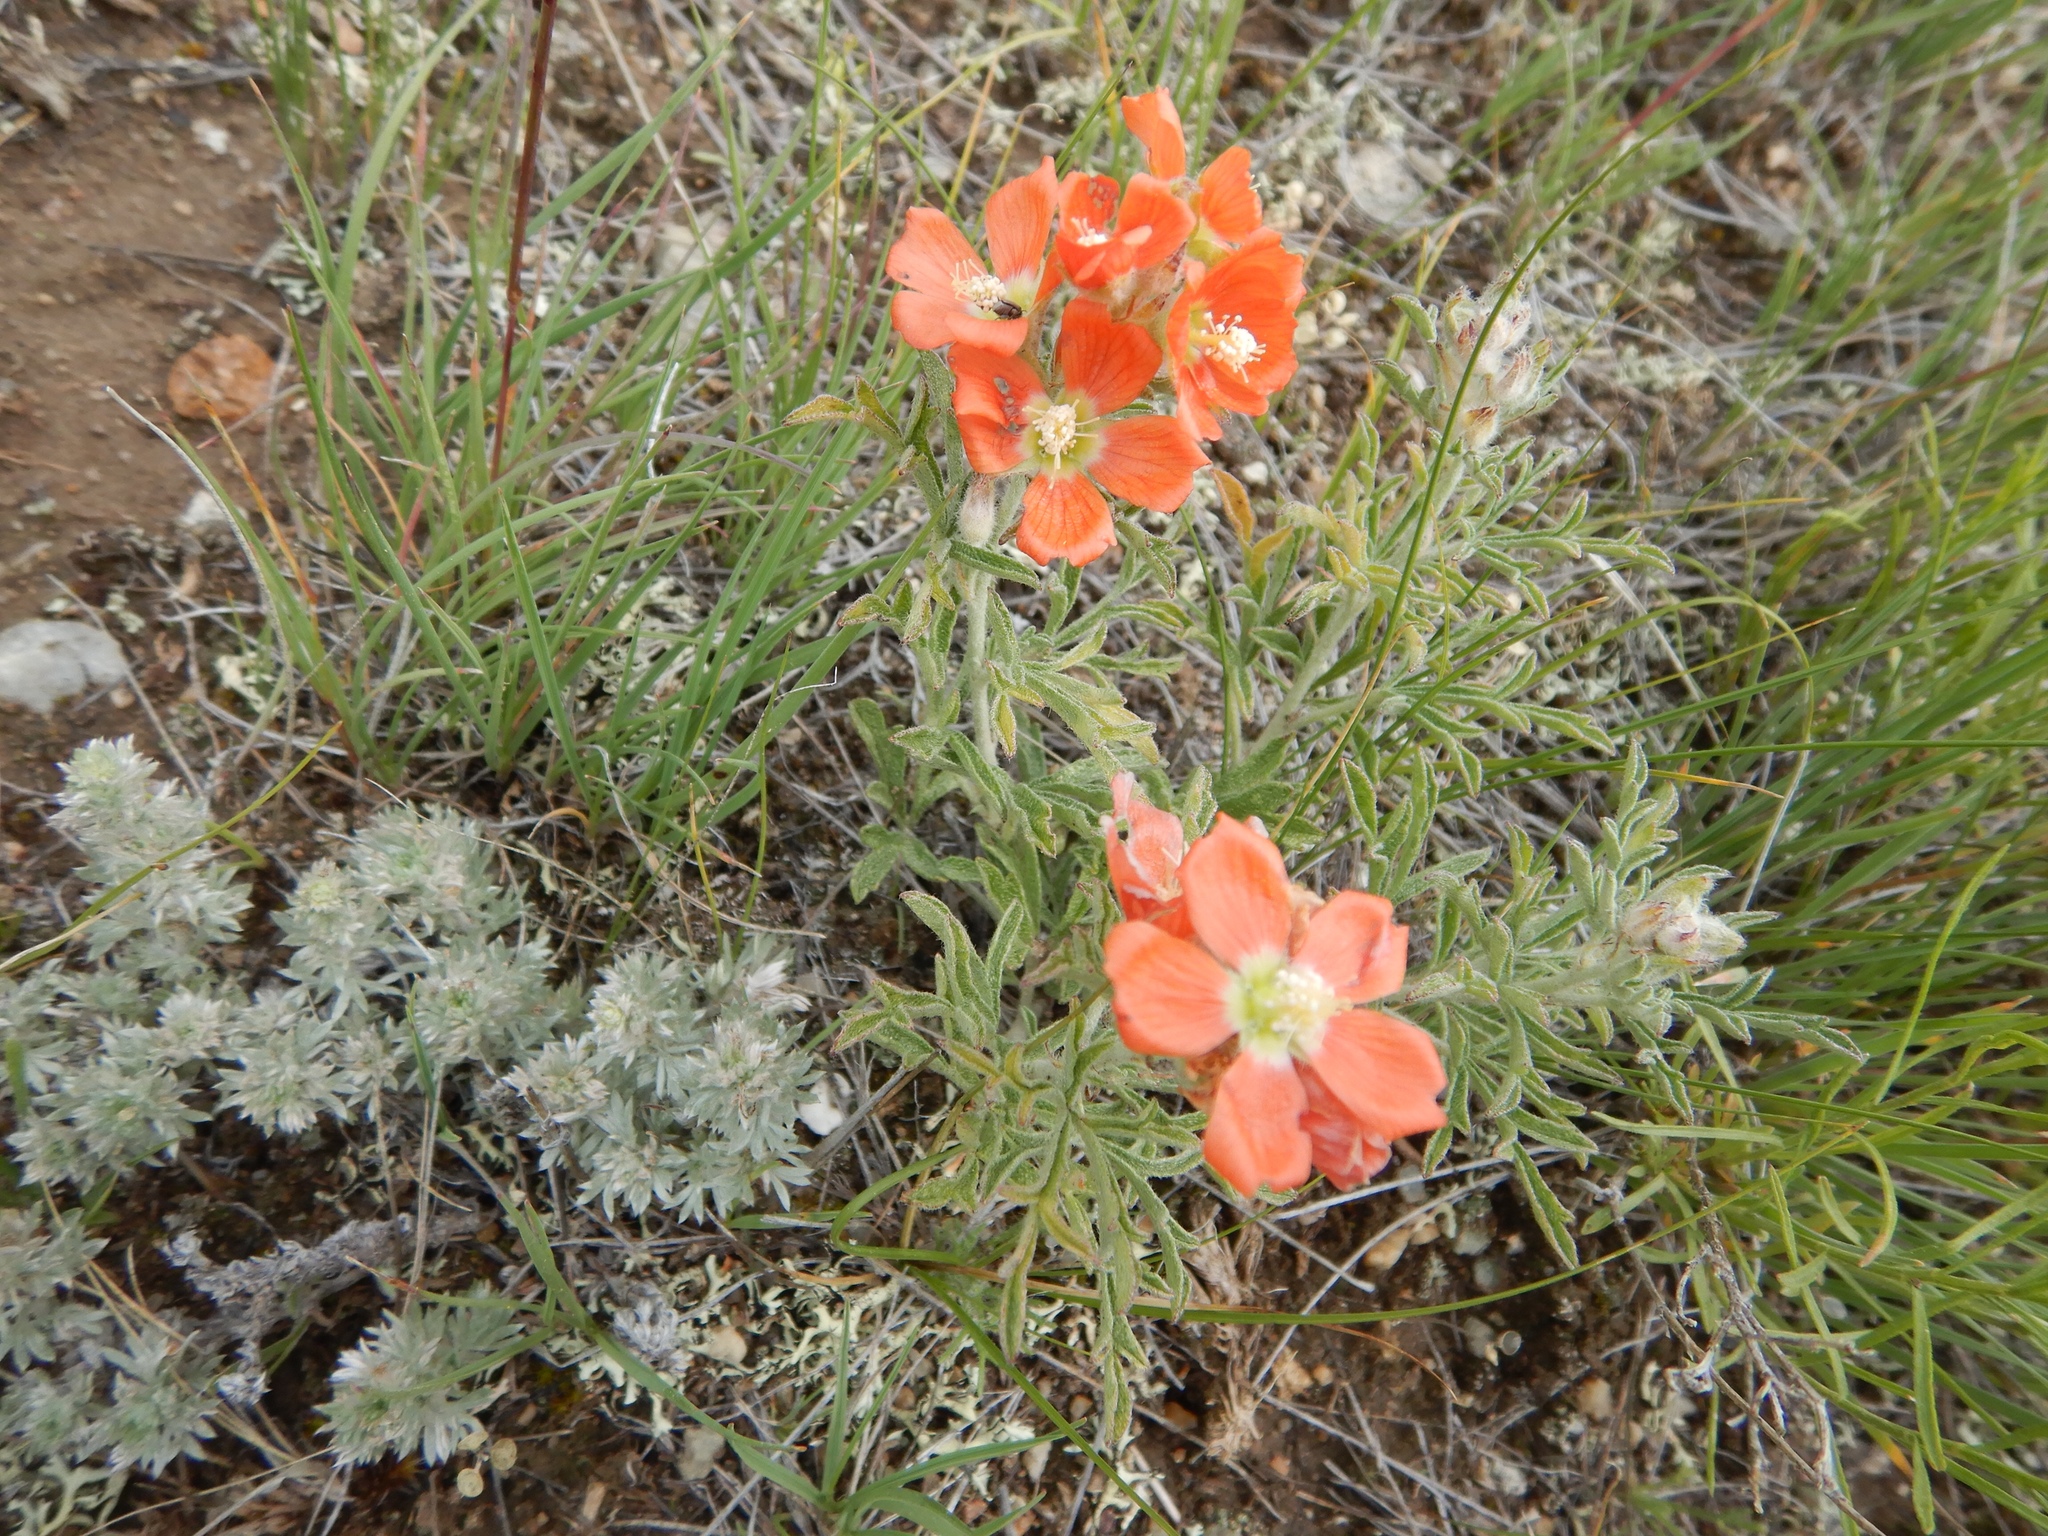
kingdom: Plantae
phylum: Tracheophyta
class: Magnoliopsida
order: Malvales
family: Malvaceae
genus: Sphaeralcea
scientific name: Sphaeralcea coccinea
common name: Moss-rose
